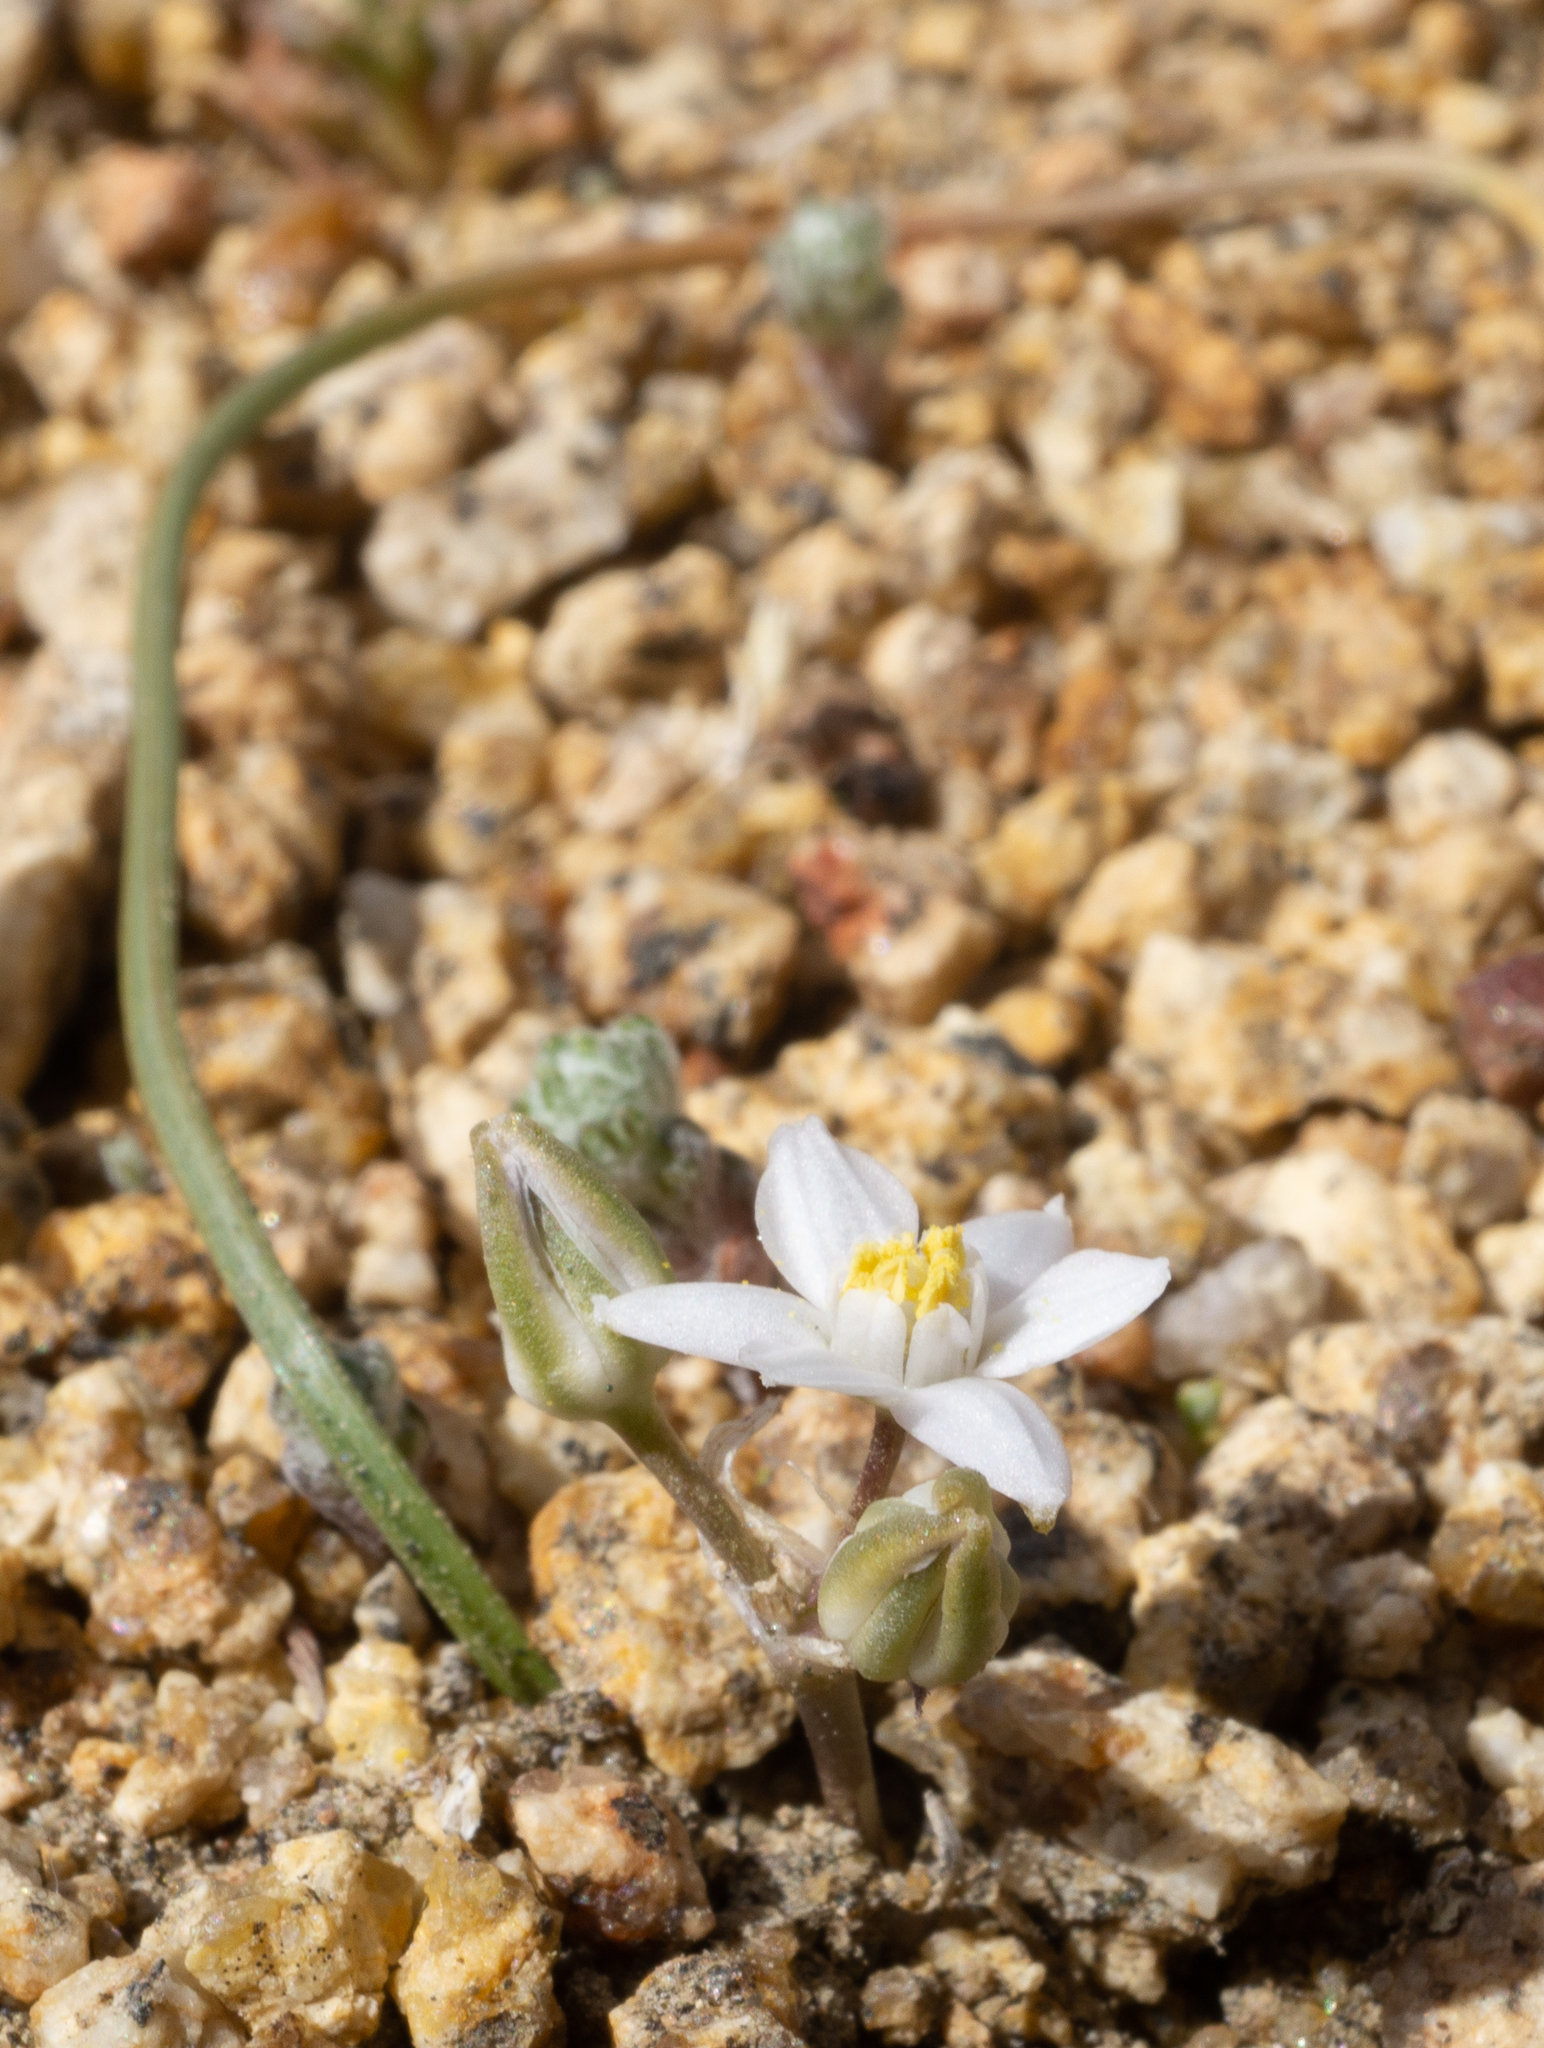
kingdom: Plantae
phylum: Tracheophyta
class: Liliopsida
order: Asparagales
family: Asparagaceae
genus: Muilla
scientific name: Muilla coronata
